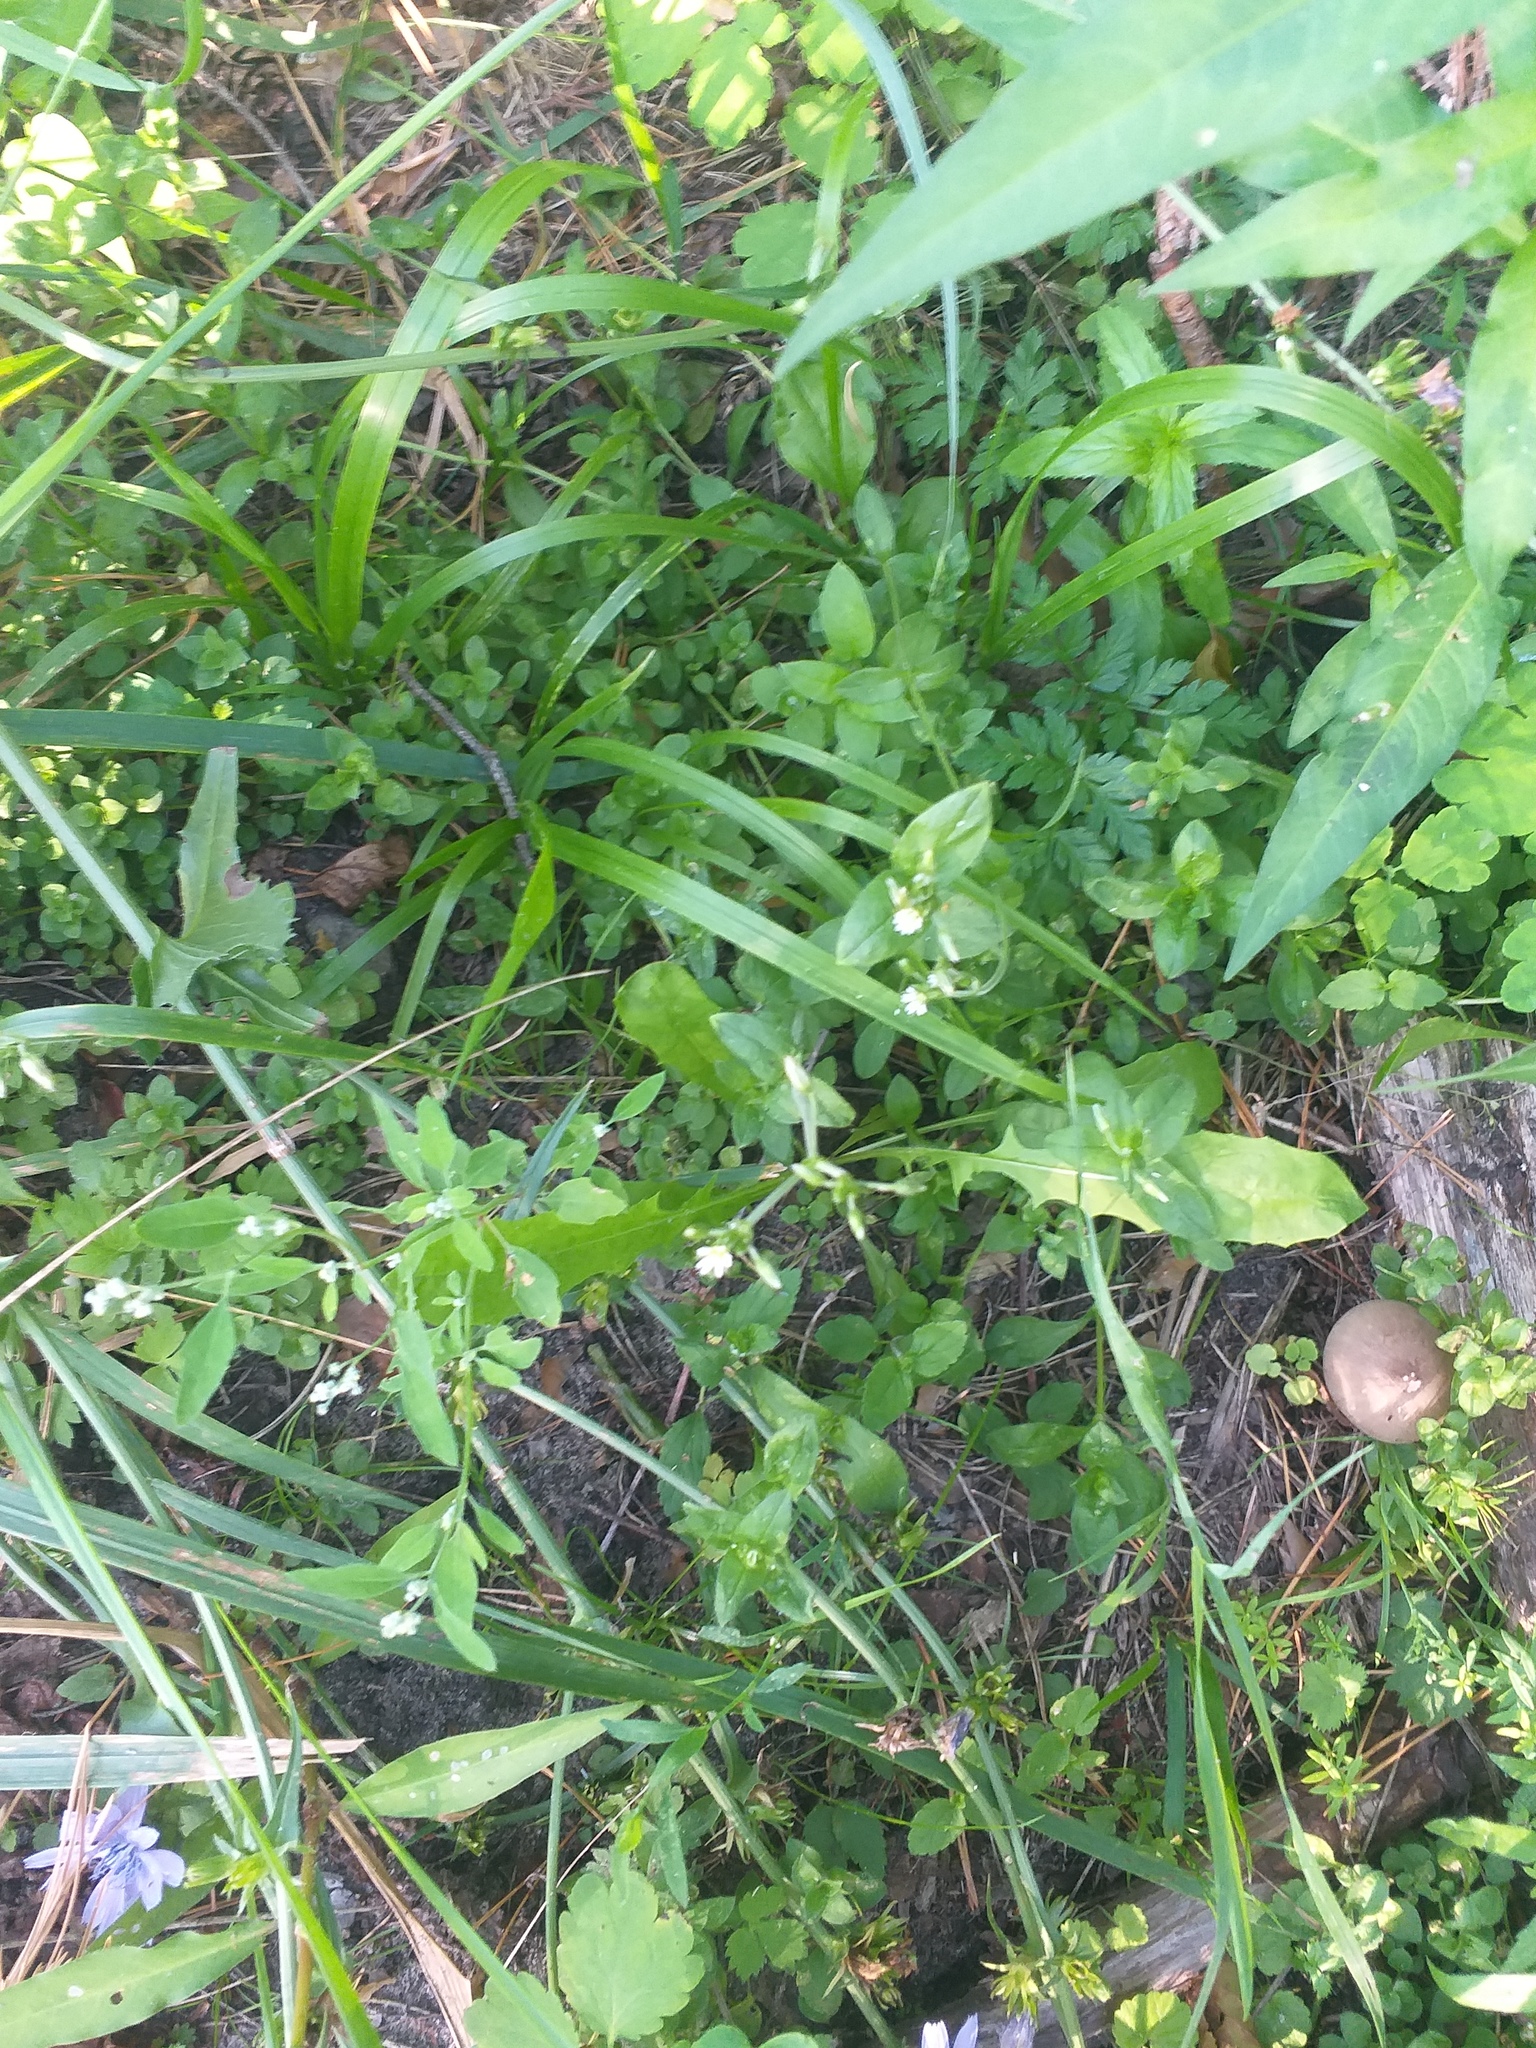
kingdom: Plantae
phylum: Tracheophyta
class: Magnoliopsida
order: Caryophyllales
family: Caryophyllaceae
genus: Cerastium
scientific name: Cerastium holosteoides
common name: Big chickweed
